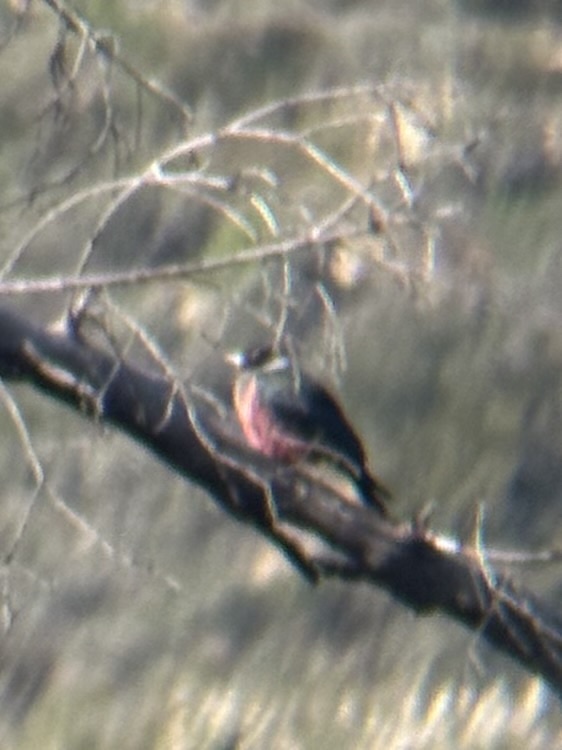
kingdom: Animalia
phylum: Chordata
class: Aves
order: Piciformes
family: Picidae
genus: Melanerpes
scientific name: Melanerpes lewis
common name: Lewis's woodpecker
